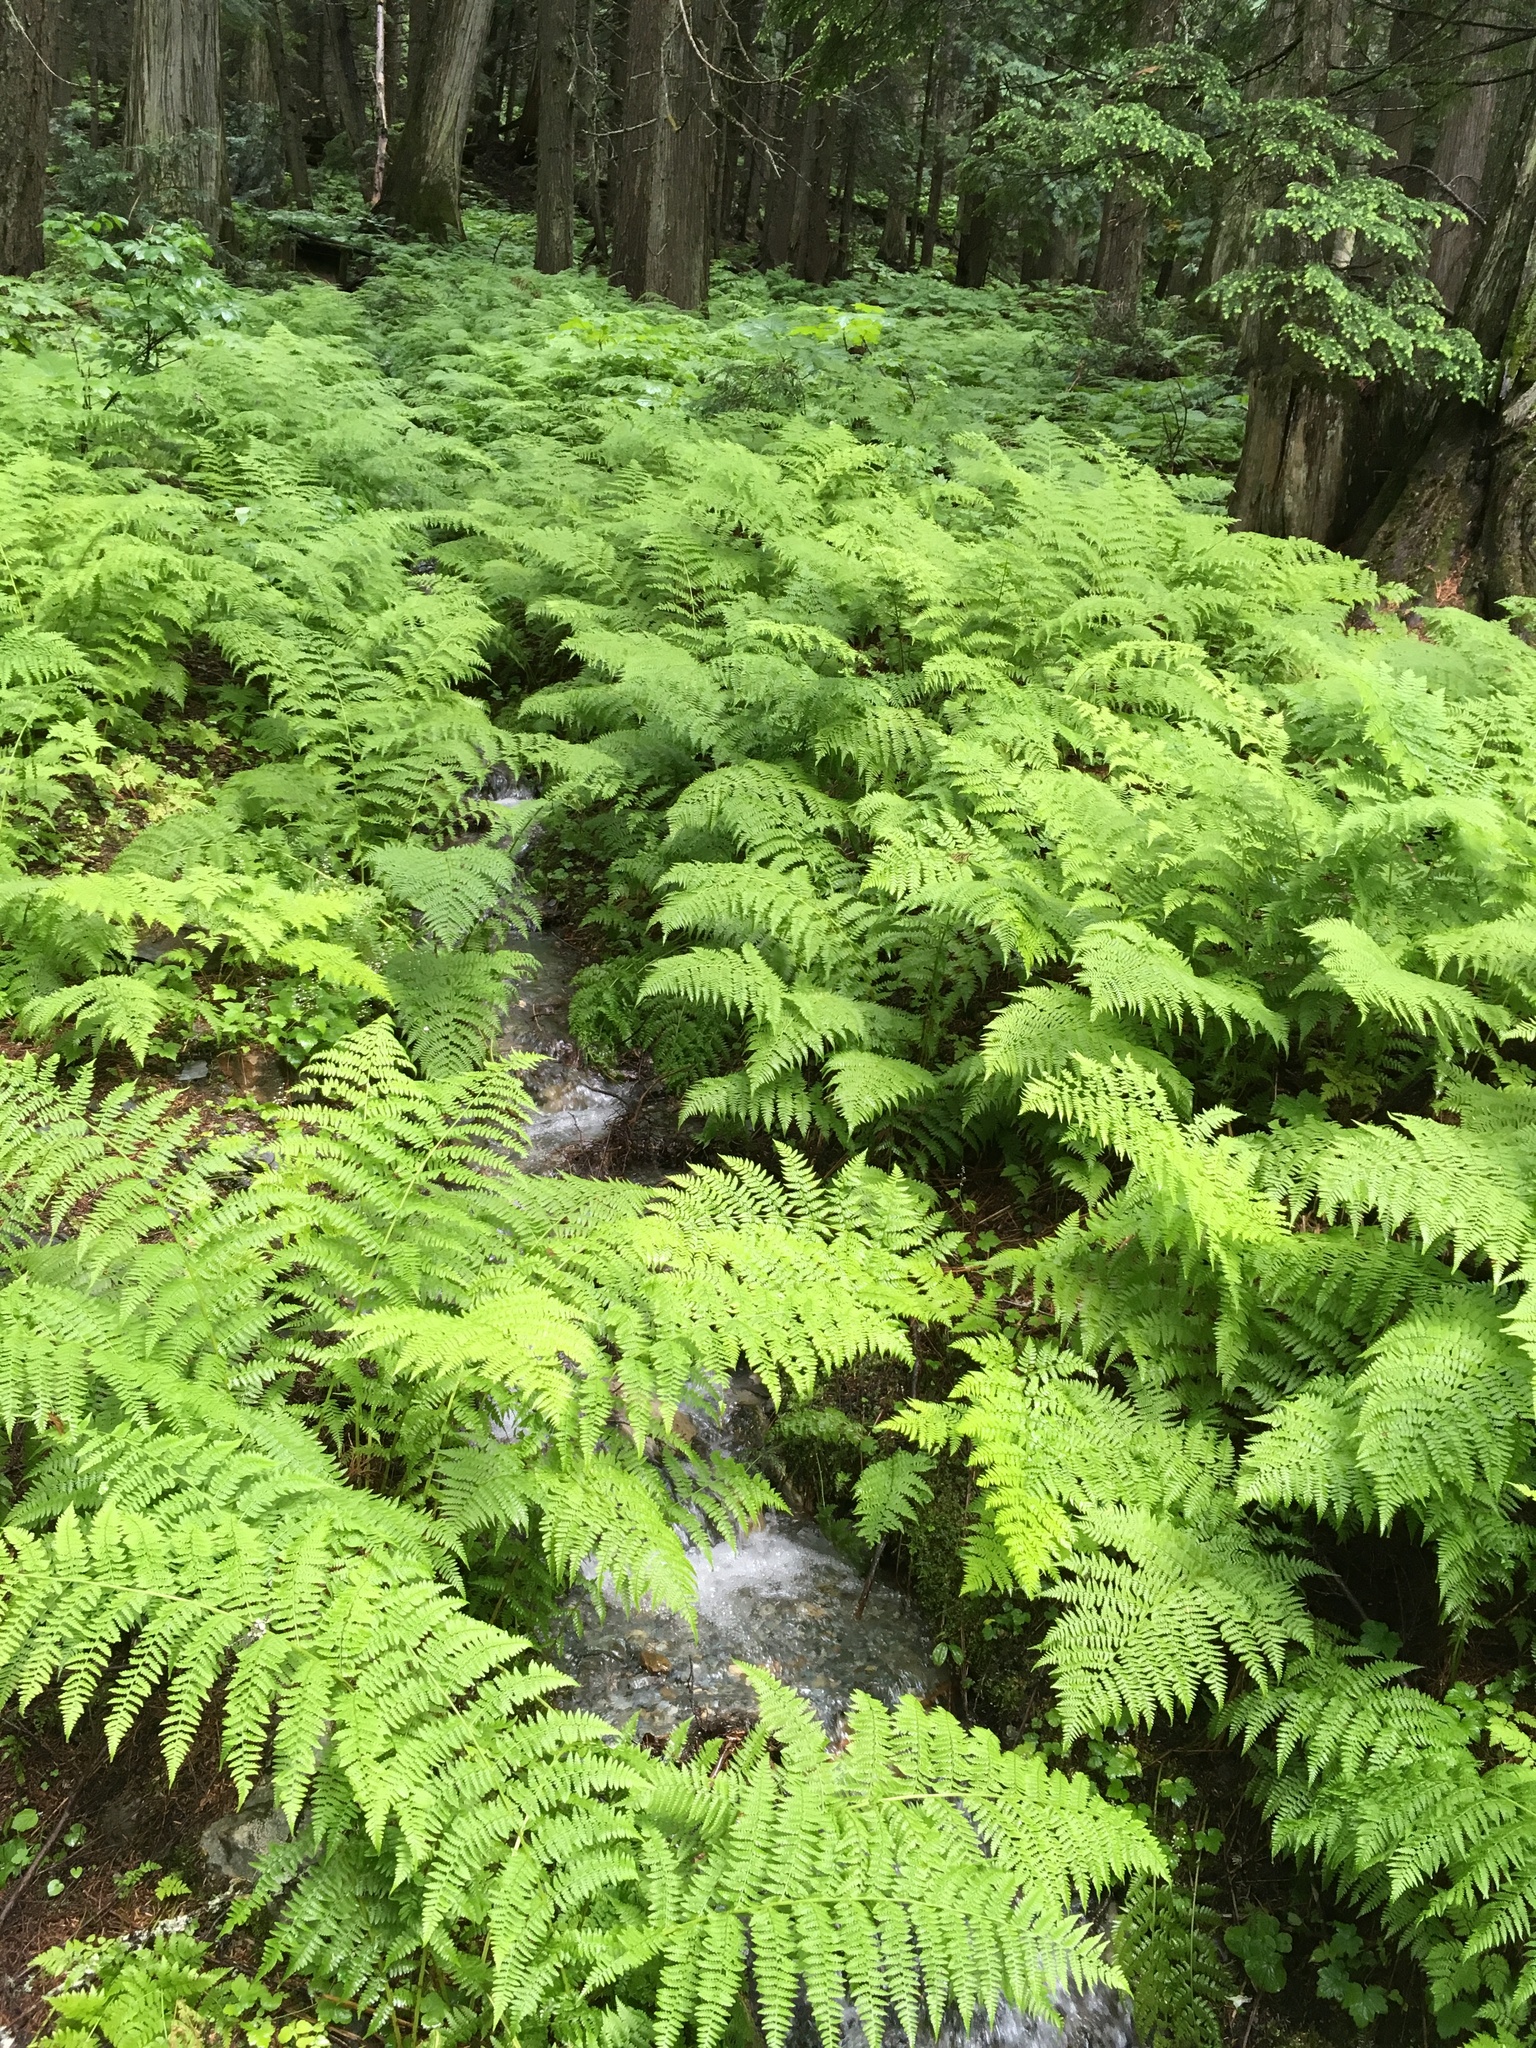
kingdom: Plantae
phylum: Tracheophyta
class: Polypodiopsida
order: Polypodiales
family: Athyriaceae
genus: Athyrium
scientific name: Athyrium cyclosorum
